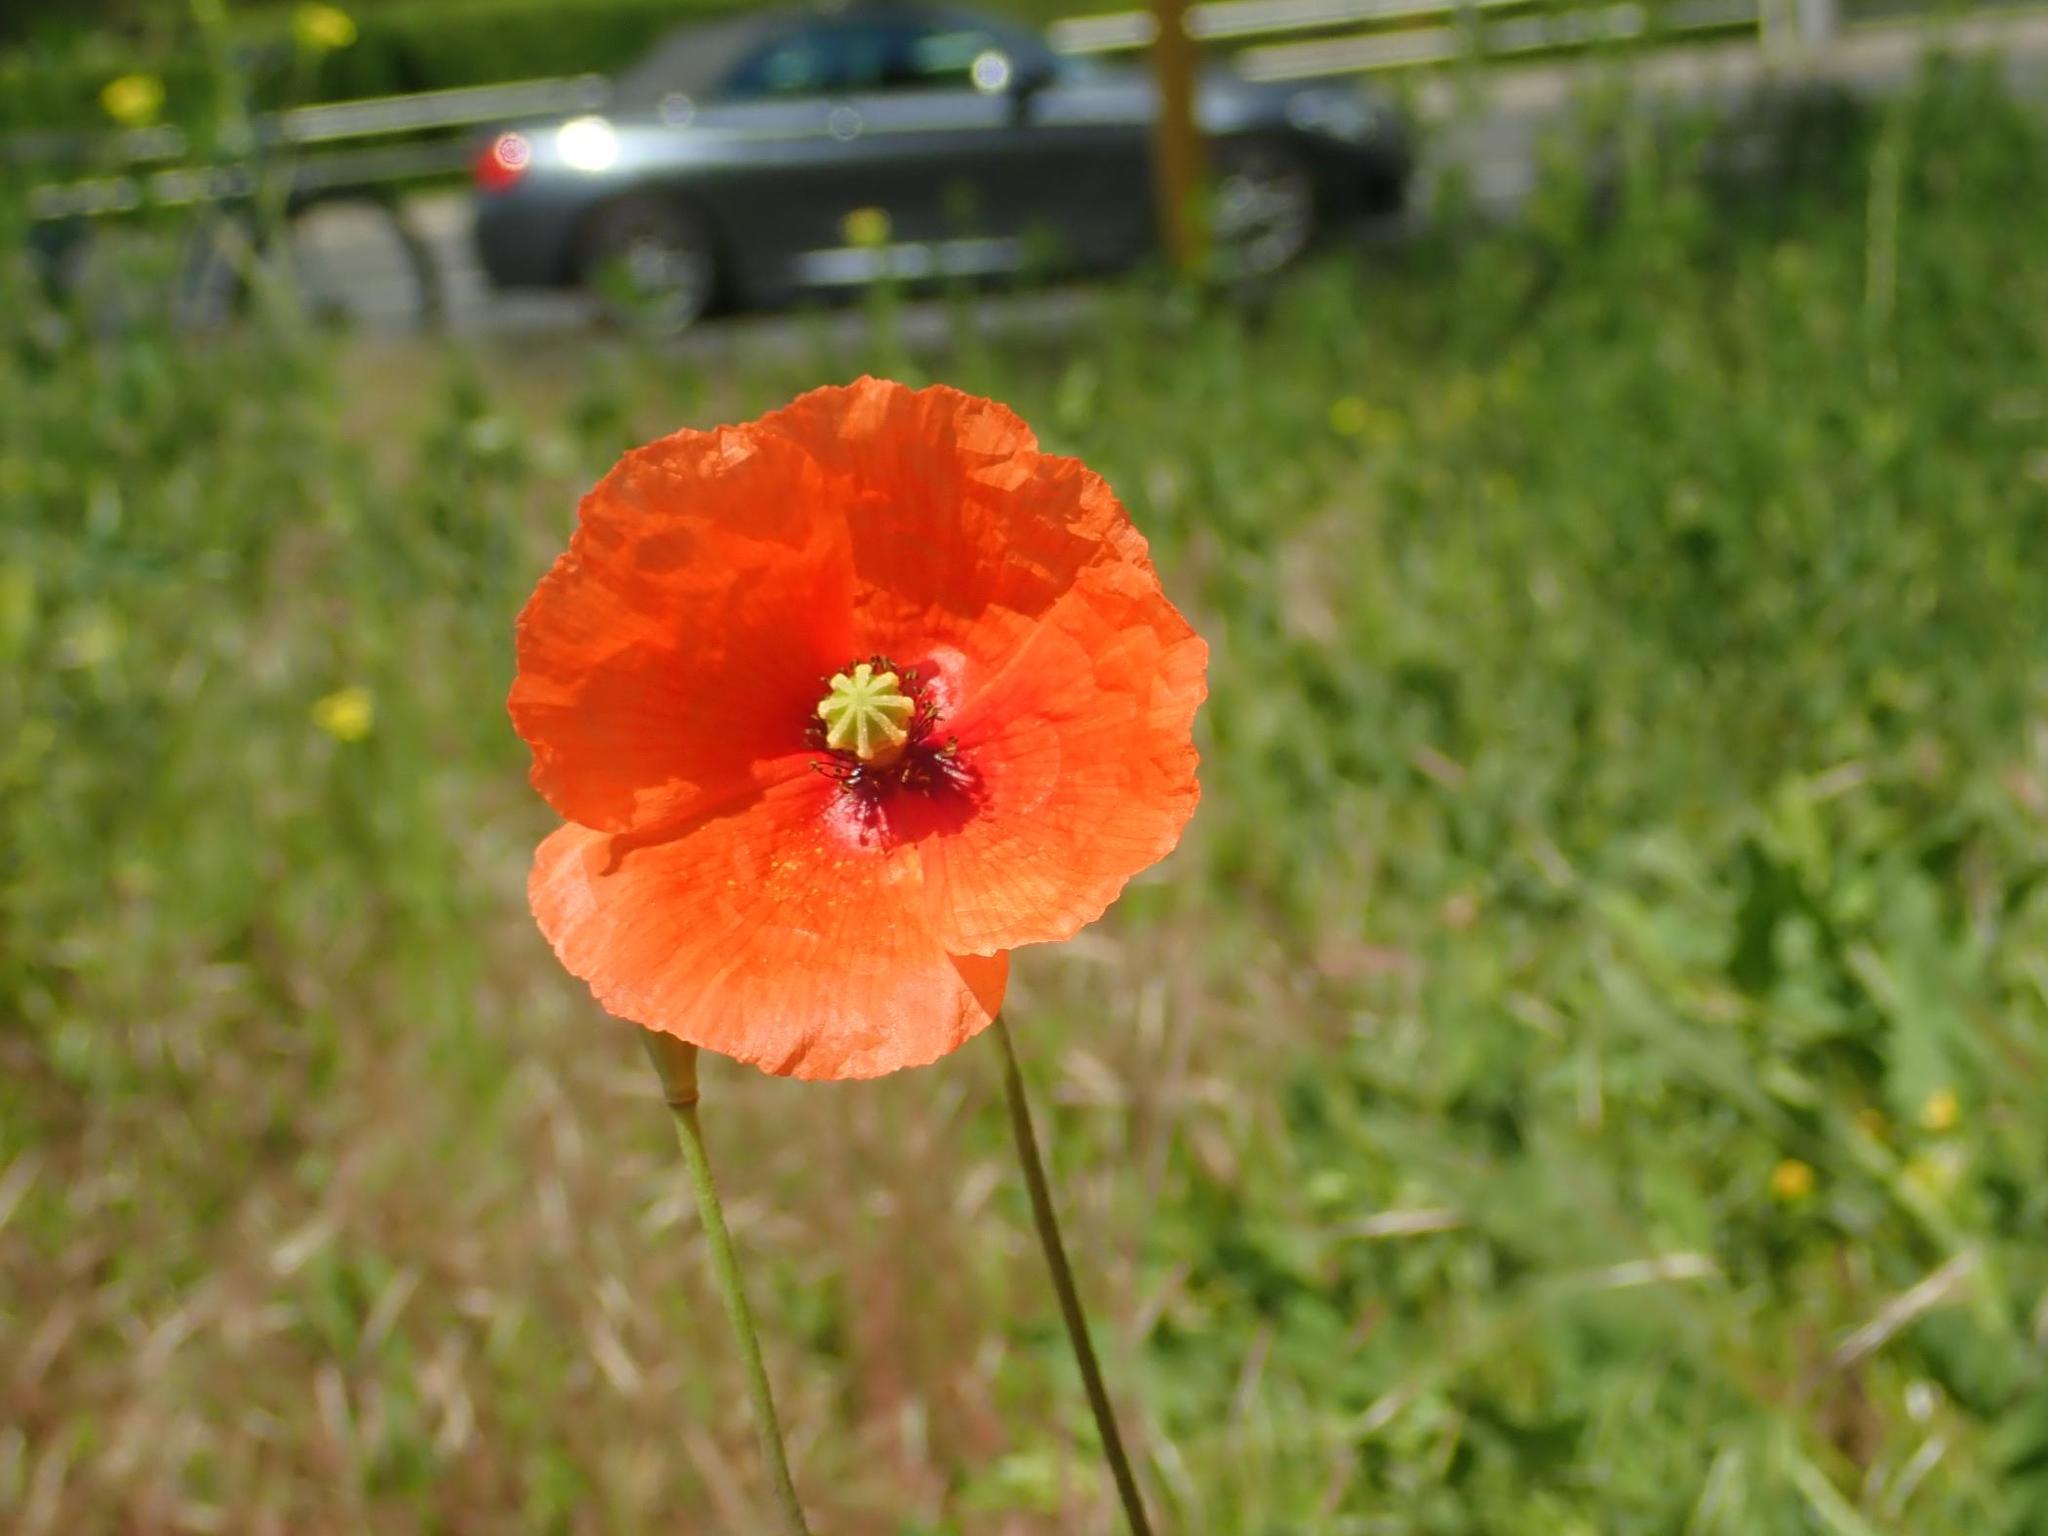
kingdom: Plantae
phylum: Tracheophyta
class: Magnoliopsida
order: Ranunculales
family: Papaveraceae
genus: Papaver
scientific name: Papaver dubium
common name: Long-headed poppy
